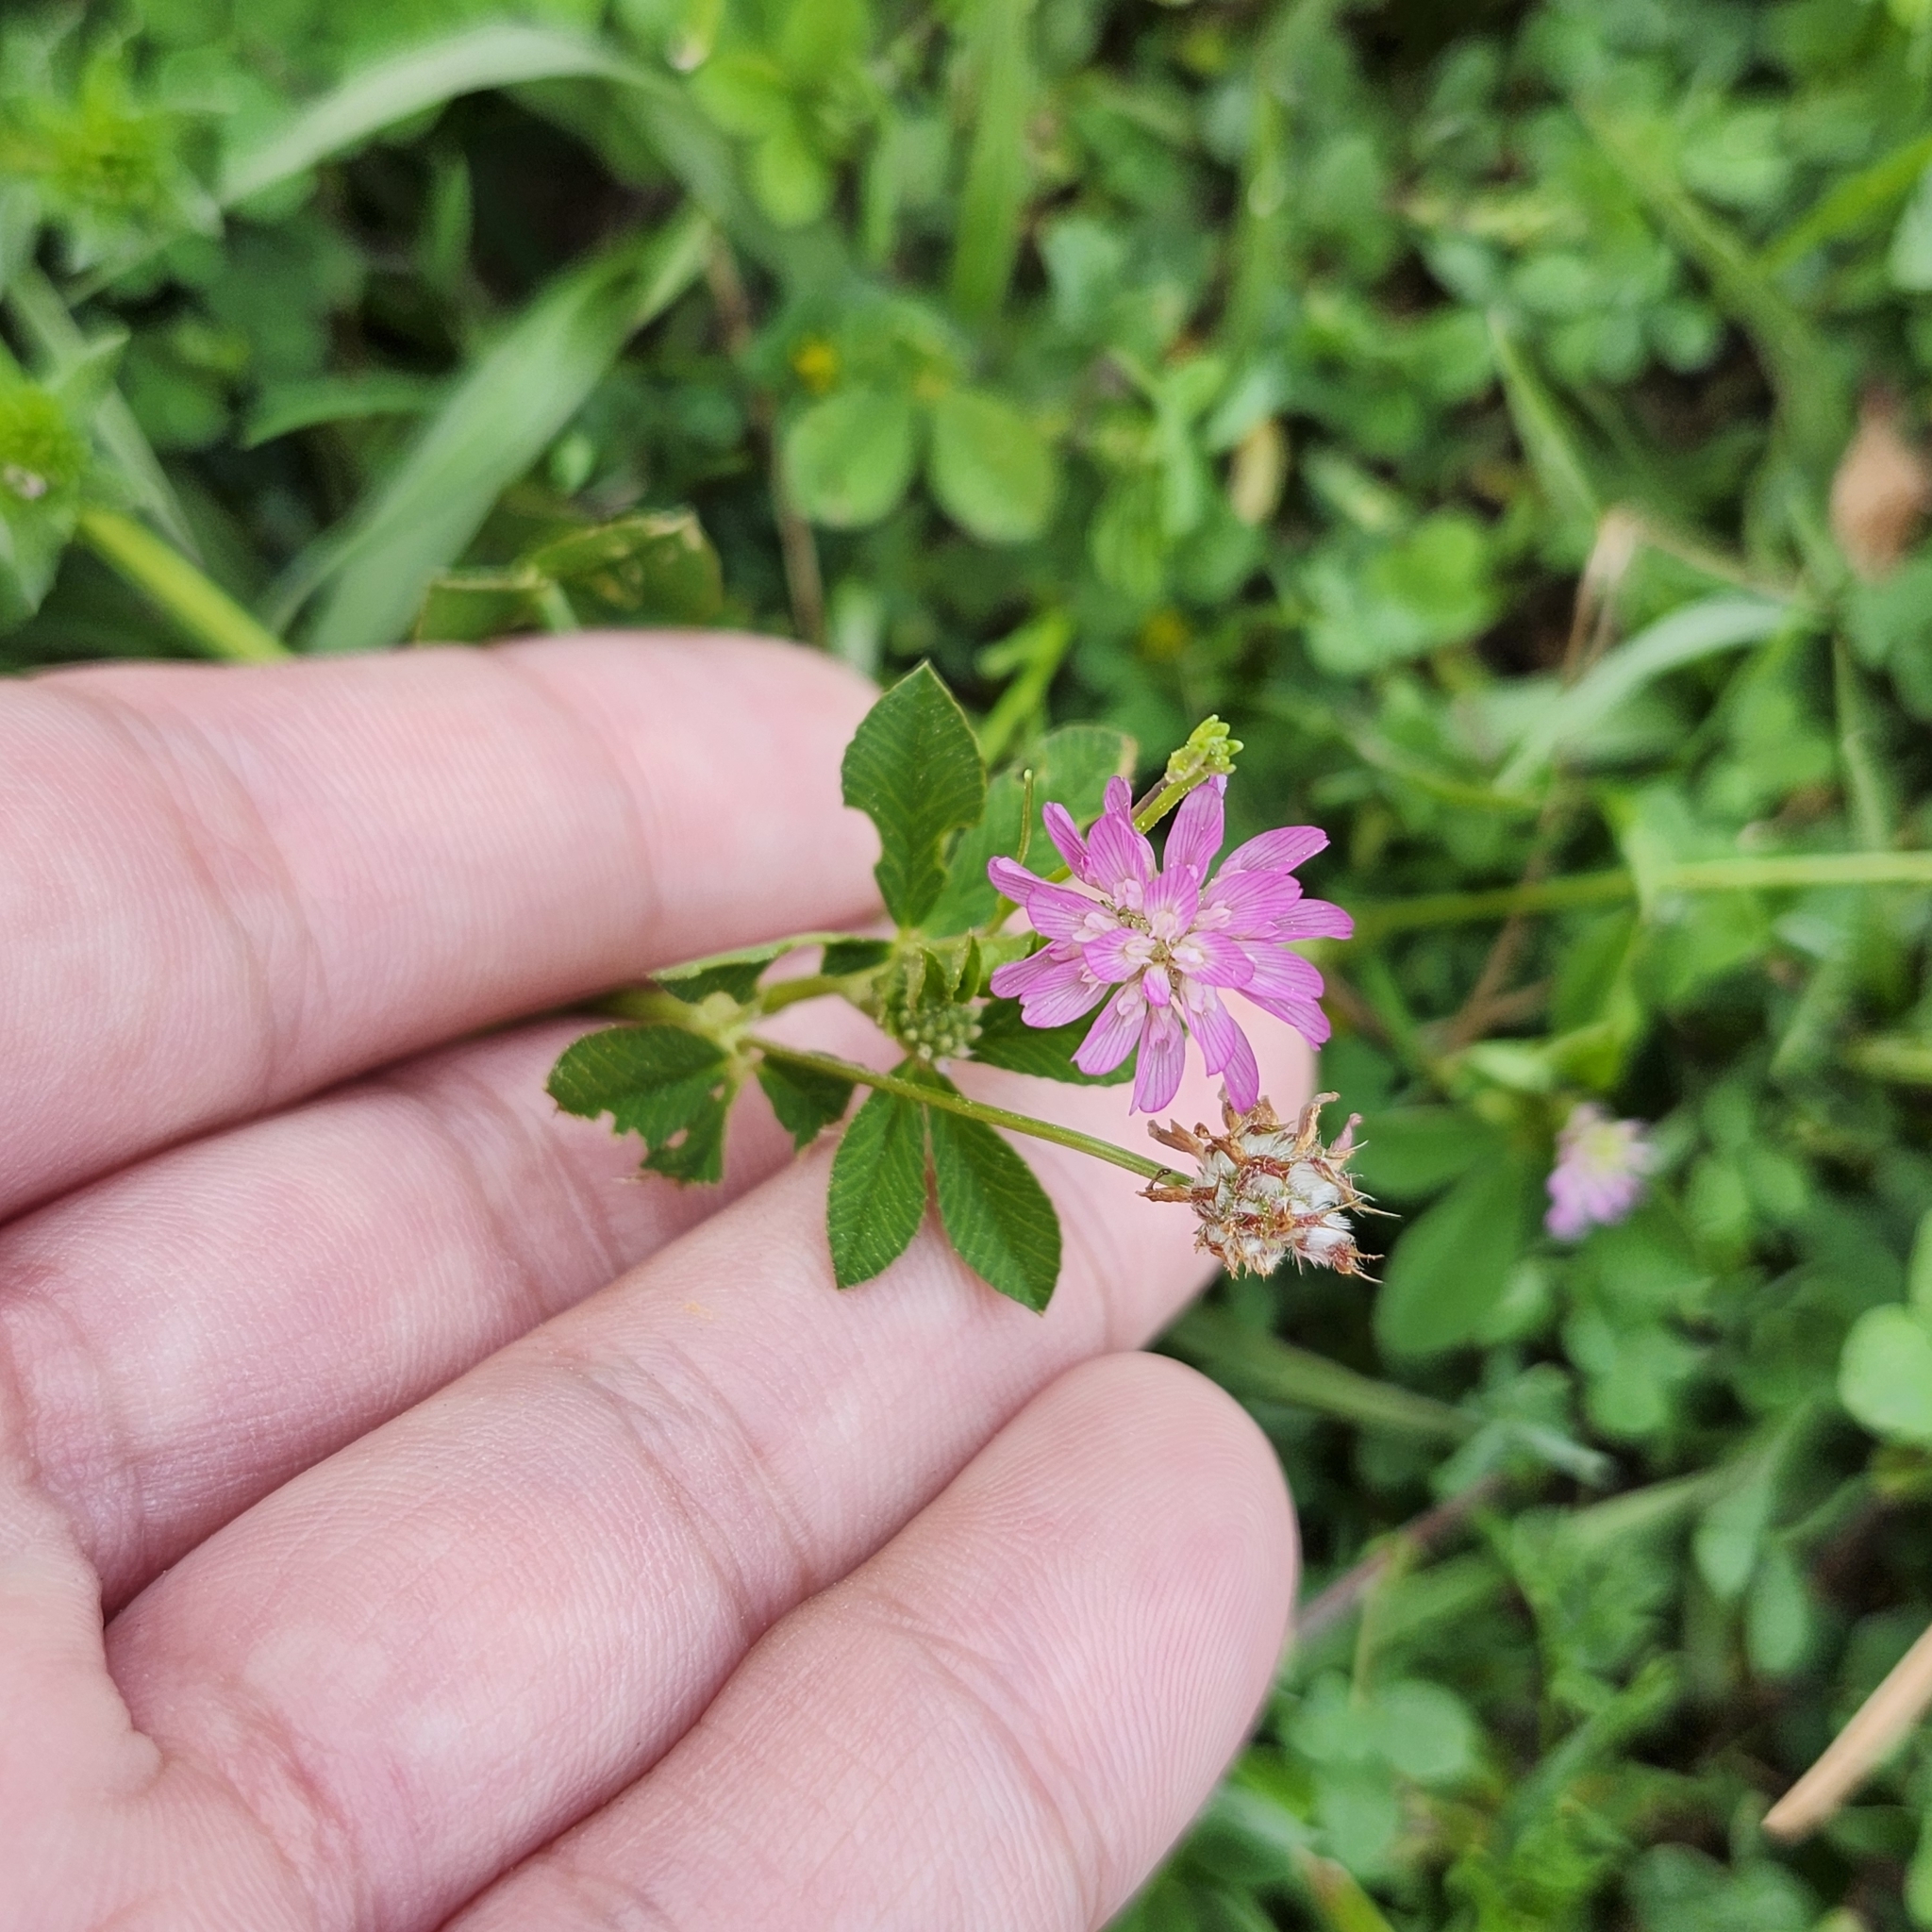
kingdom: Plantae
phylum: Tracheophyta
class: Magnoliopsida
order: Fabales
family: Fabaceae
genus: Trifolium
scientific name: Trifolium resupinatum
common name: Reversed clover
